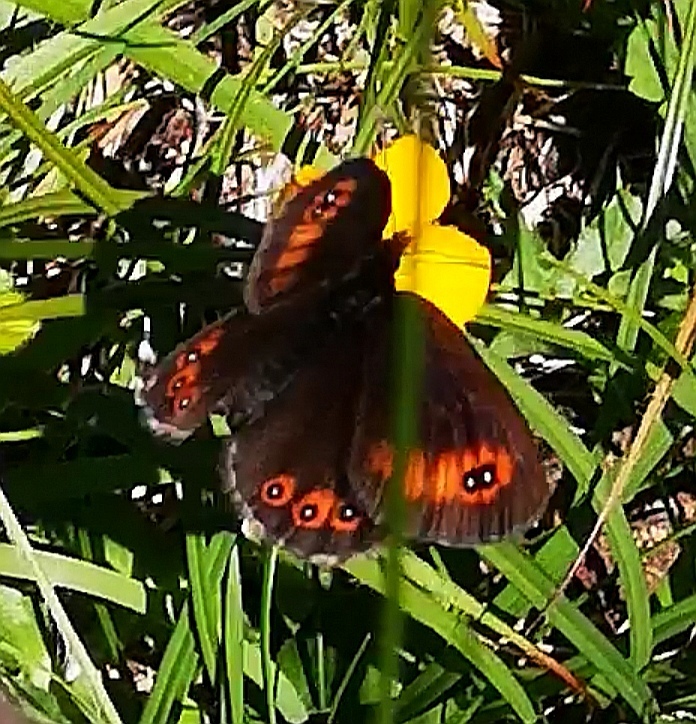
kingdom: Animalia
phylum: Arthropoda
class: Insecta
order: Lepidoptera
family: Nymphalidae
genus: Erebia
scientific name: Erebia oeme
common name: Bright-eyed ringlet
